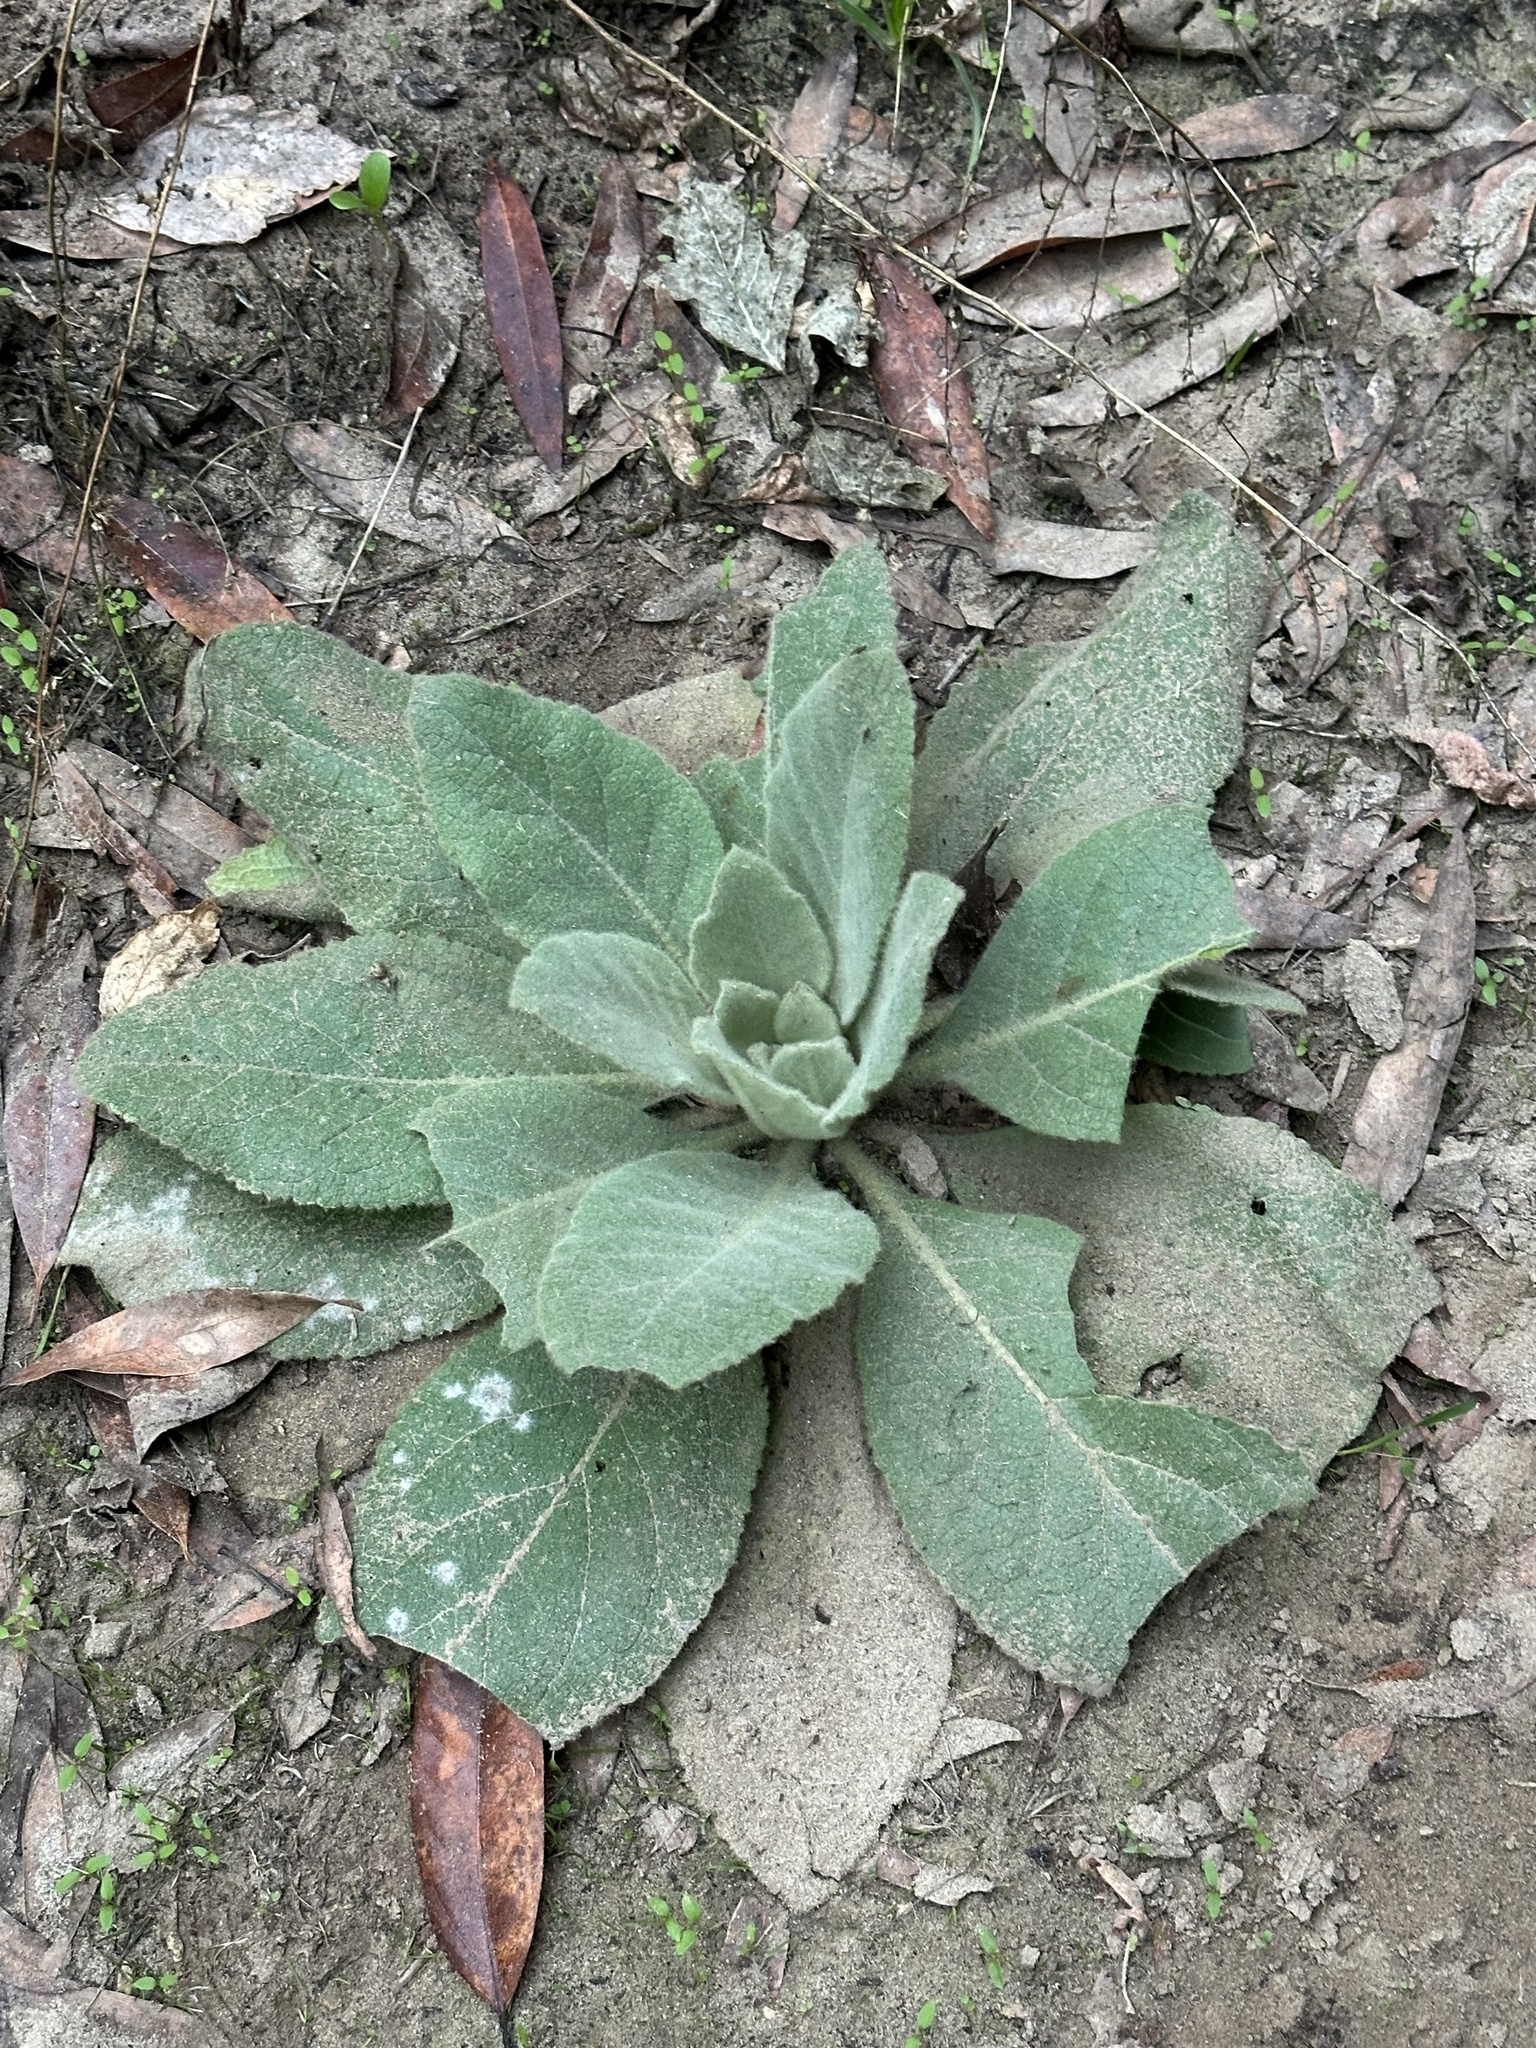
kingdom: Plantae
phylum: Tracheophyta
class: Magnoliopsida
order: Lamiales
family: Scrophulariaceae
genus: Verbascum
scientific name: Verbascum thapsus
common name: Common mullein
